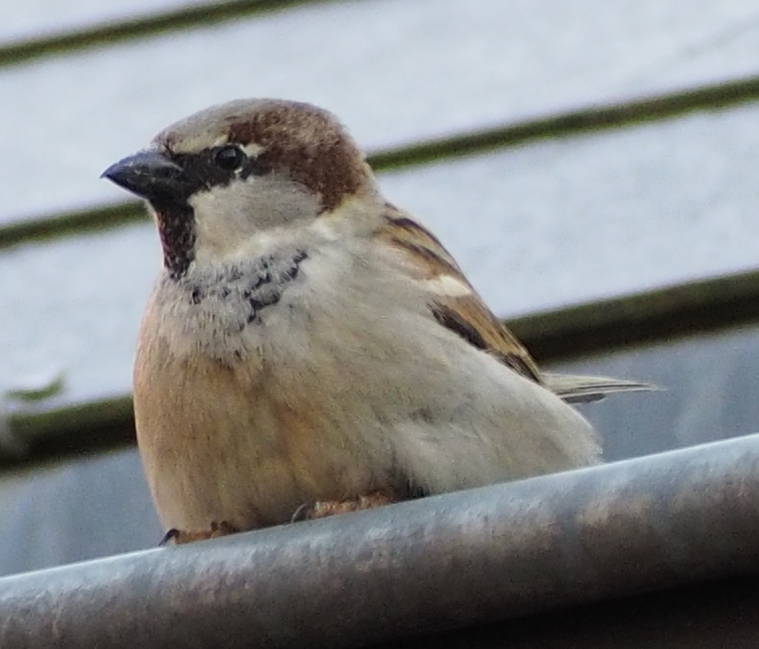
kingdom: Animalia
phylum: Chordata
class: Aves
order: Passeriformes
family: Passeridae
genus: Passer
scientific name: Passer domesticus
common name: House sparrow
